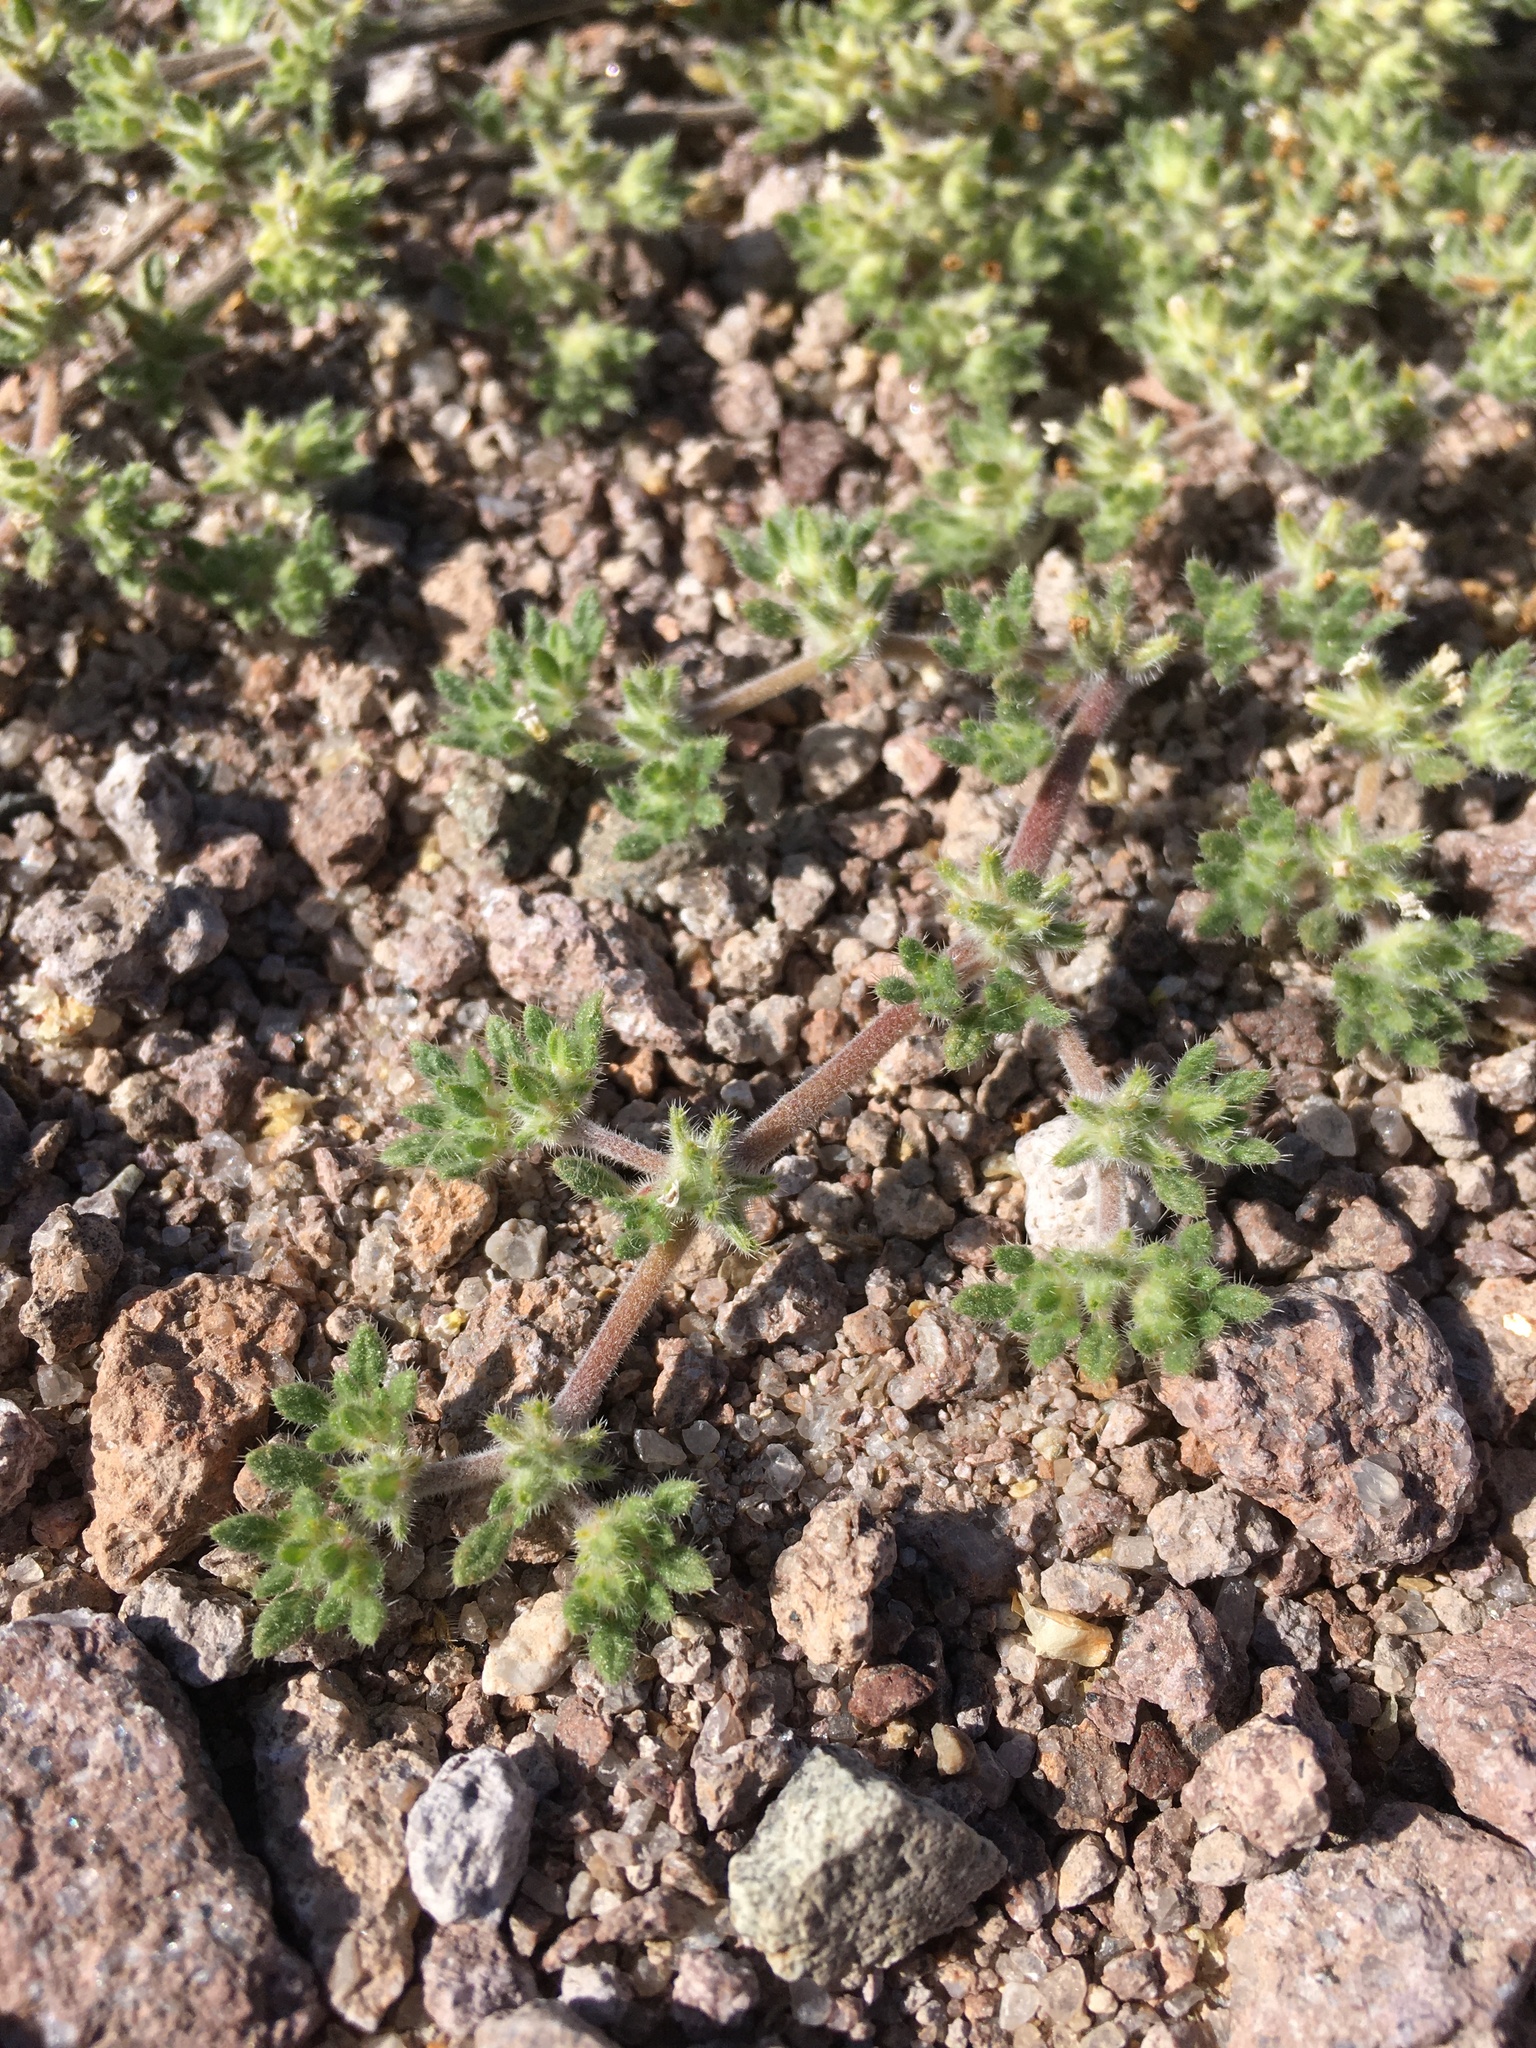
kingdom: Plantae
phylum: Tracheophyta
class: Magnoliopsida
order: Boraginales
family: Ehretiaceae
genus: Tiquilia
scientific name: Tiquilia paronychioides
